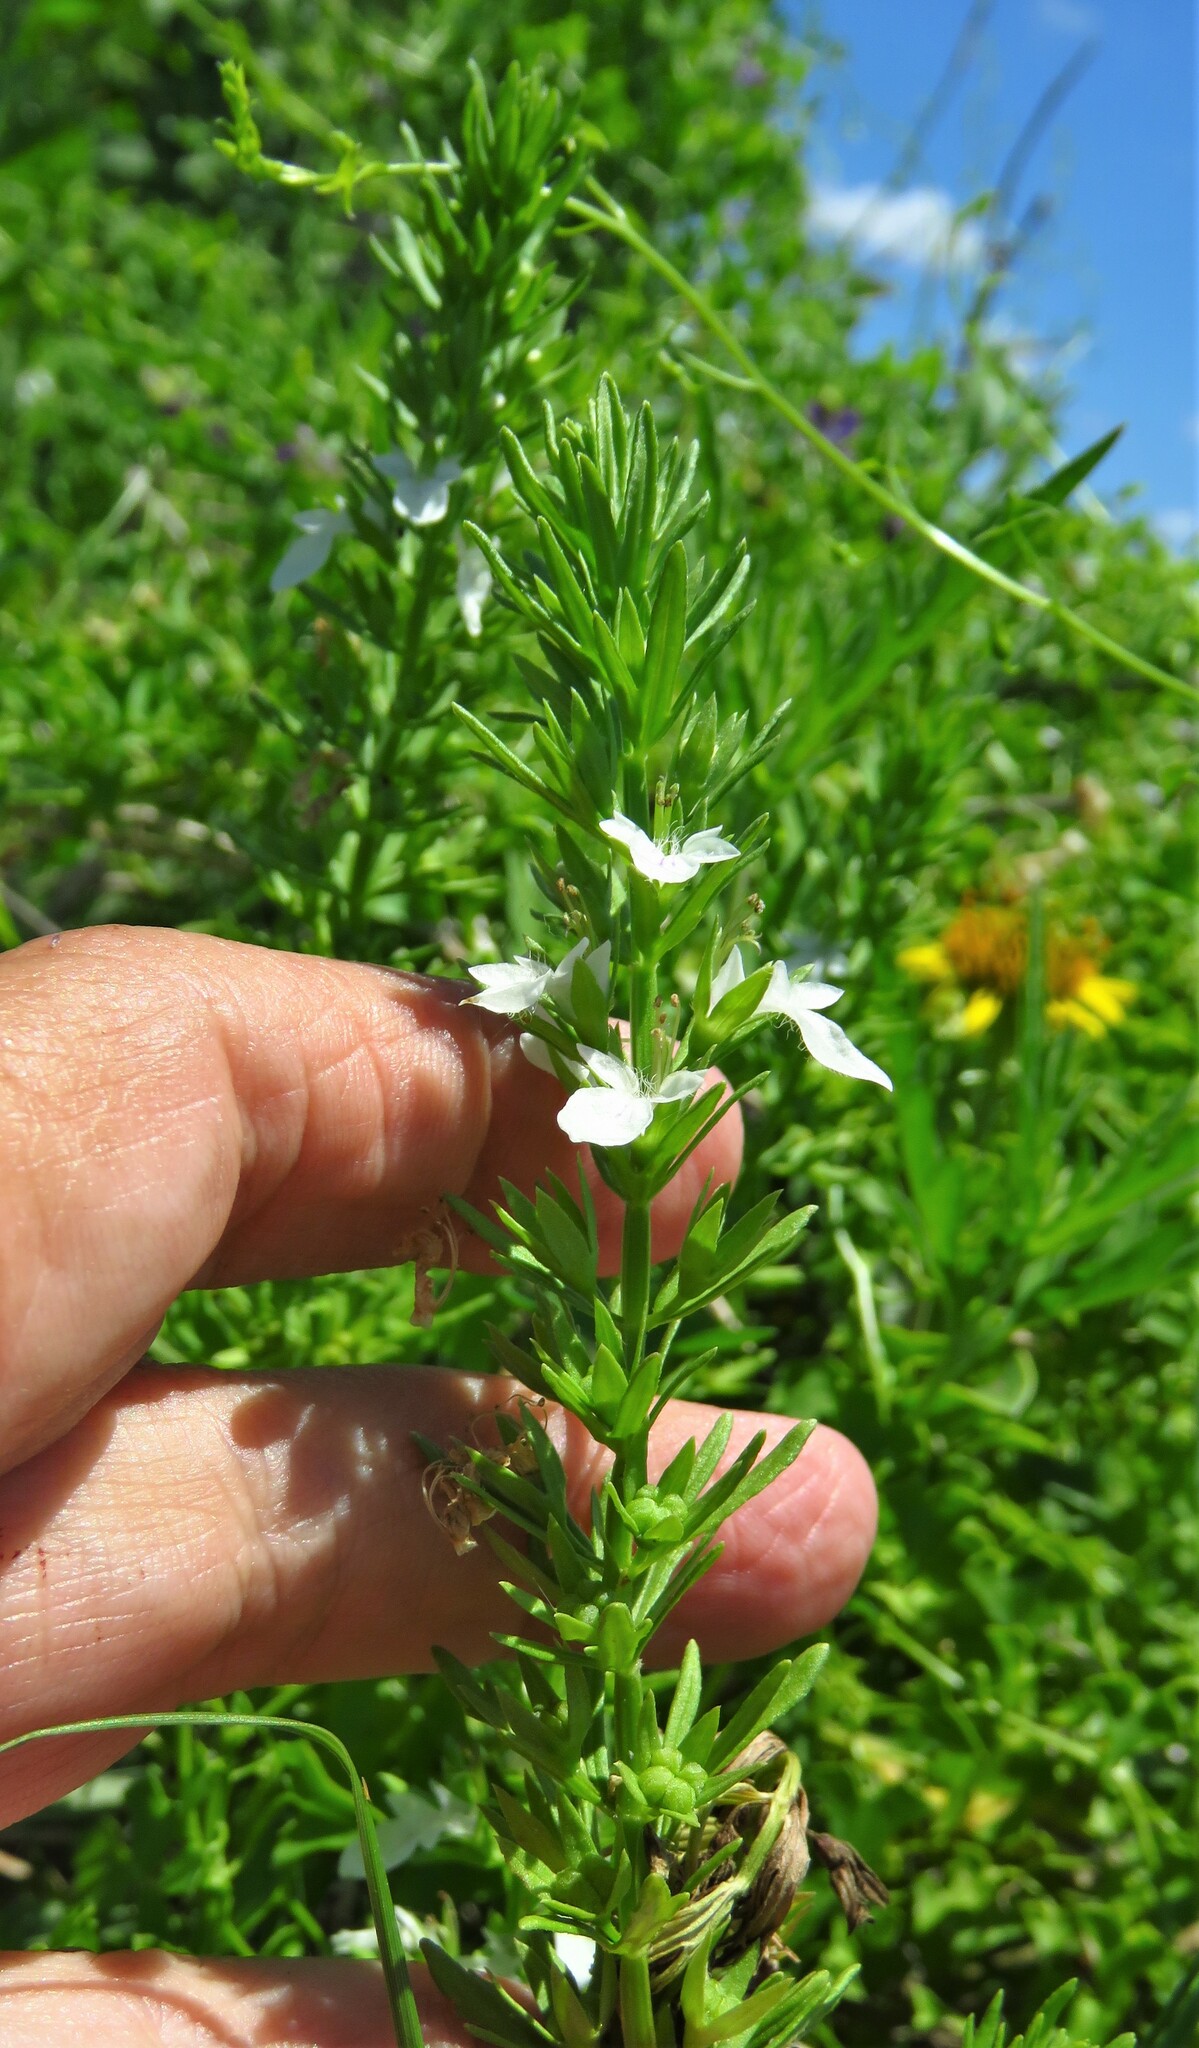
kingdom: Plantae
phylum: Tracheophyta
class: Magnoliopsida
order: Lamiales
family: Lamiaceae
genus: Teucrium
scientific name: Teucrium cubense
